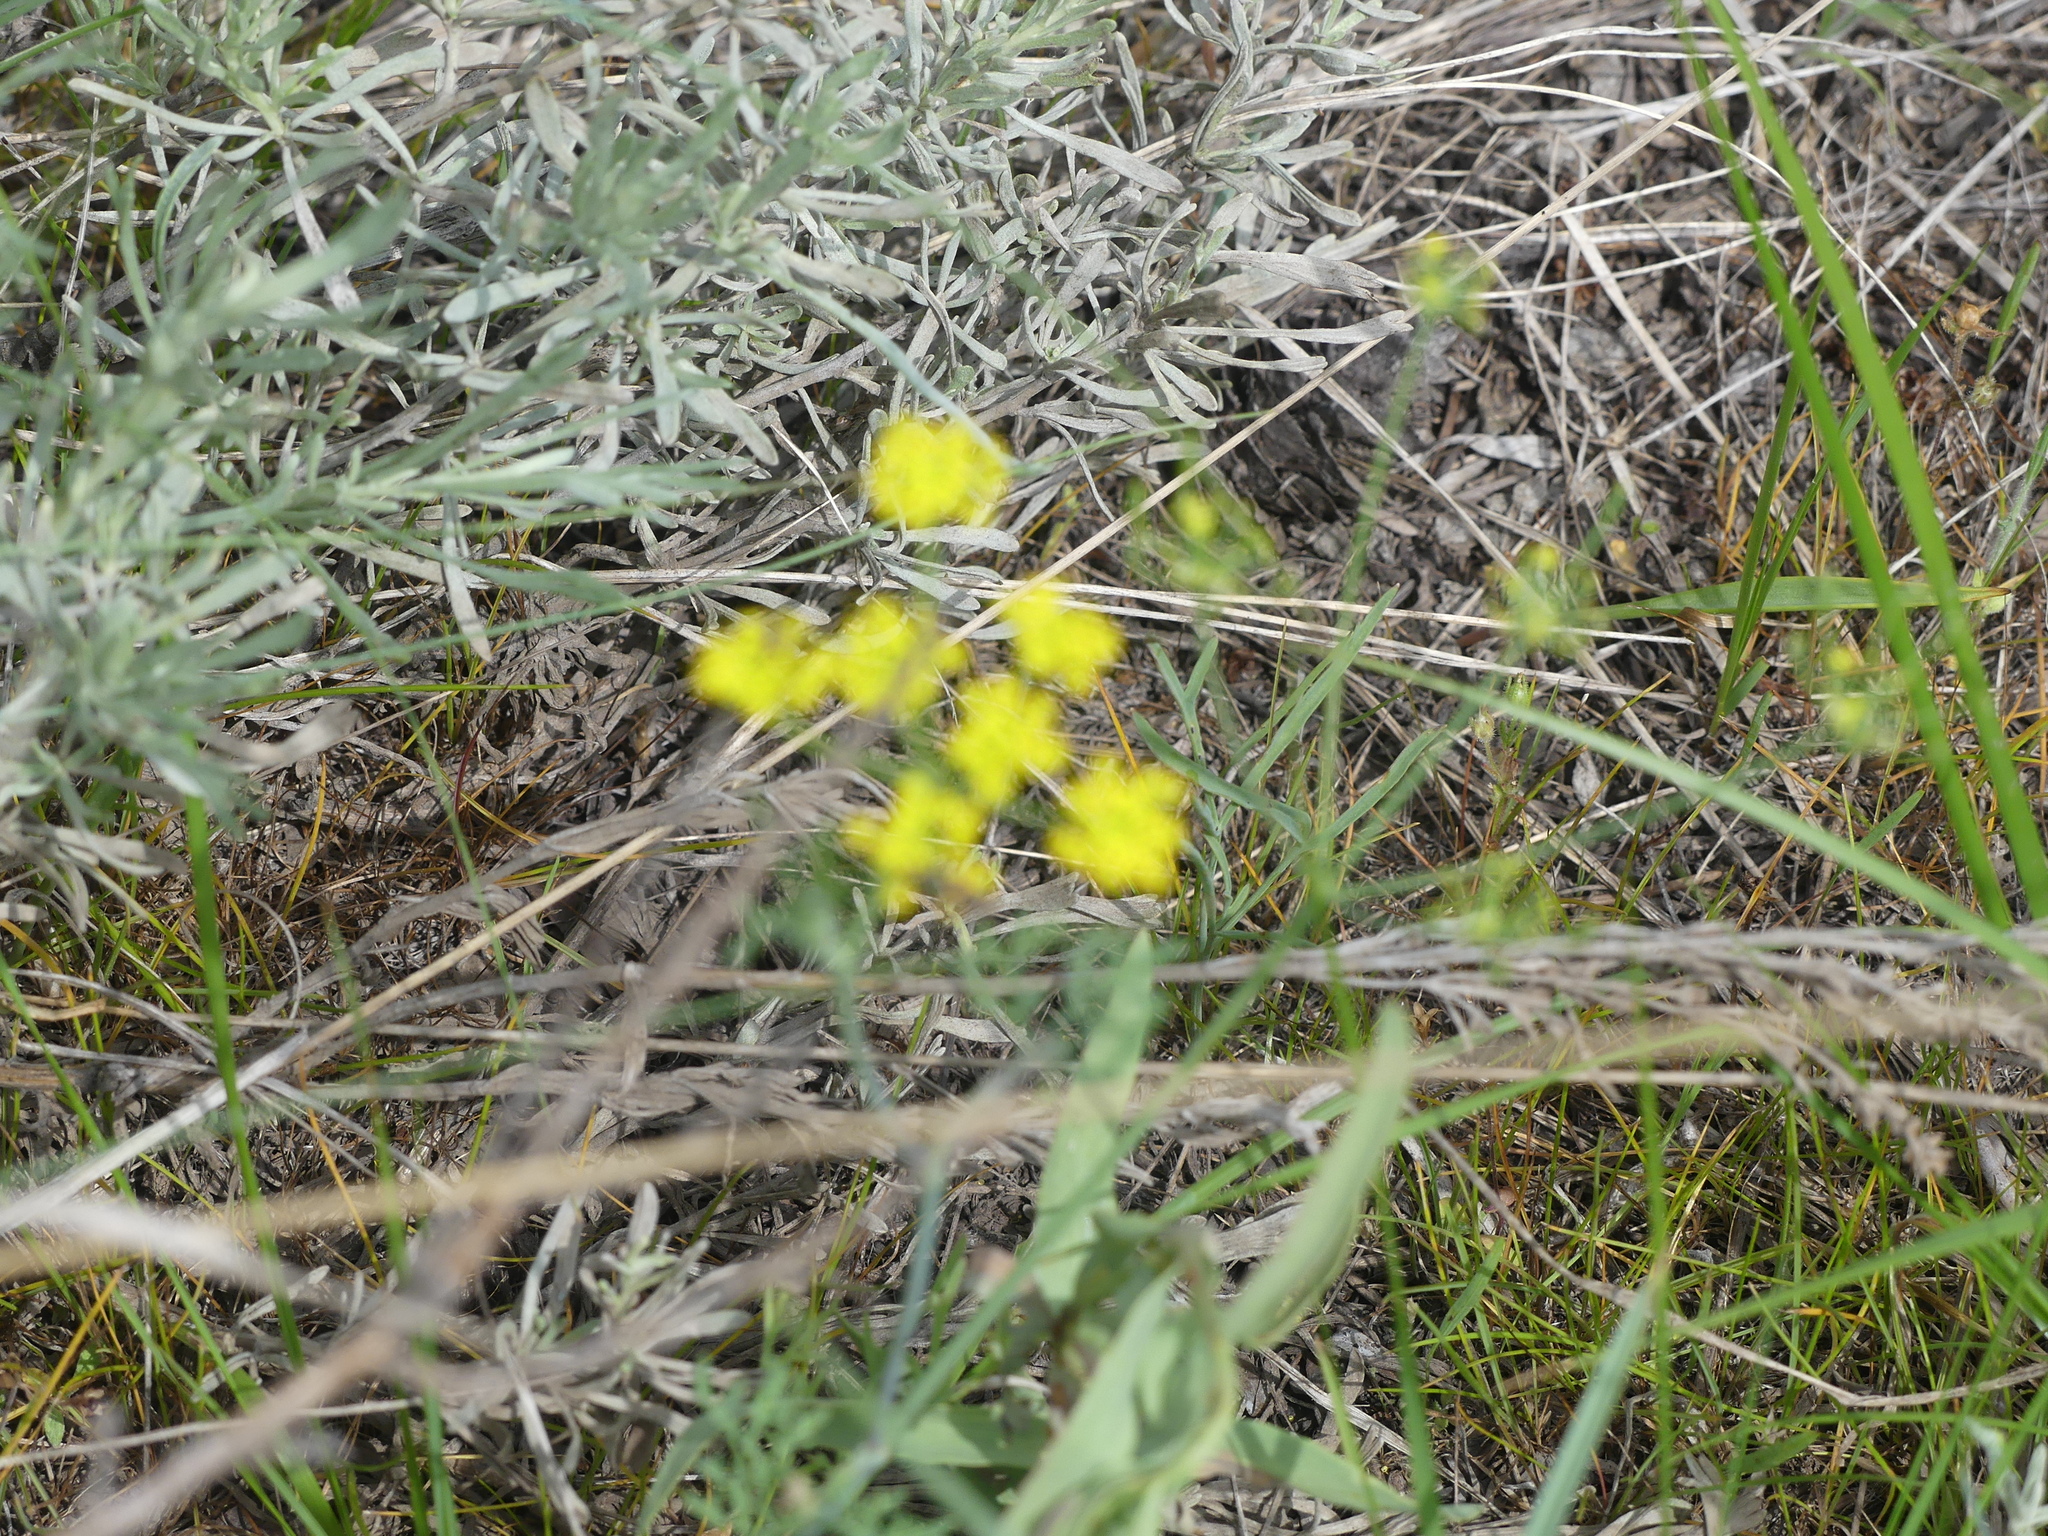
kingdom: Plantae
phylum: Tracheophyta
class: Magnoliopsida
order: Apiales
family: Apiaceae
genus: Lomatium
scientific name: Lomatium ambiguum
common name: Lacy lomatium
